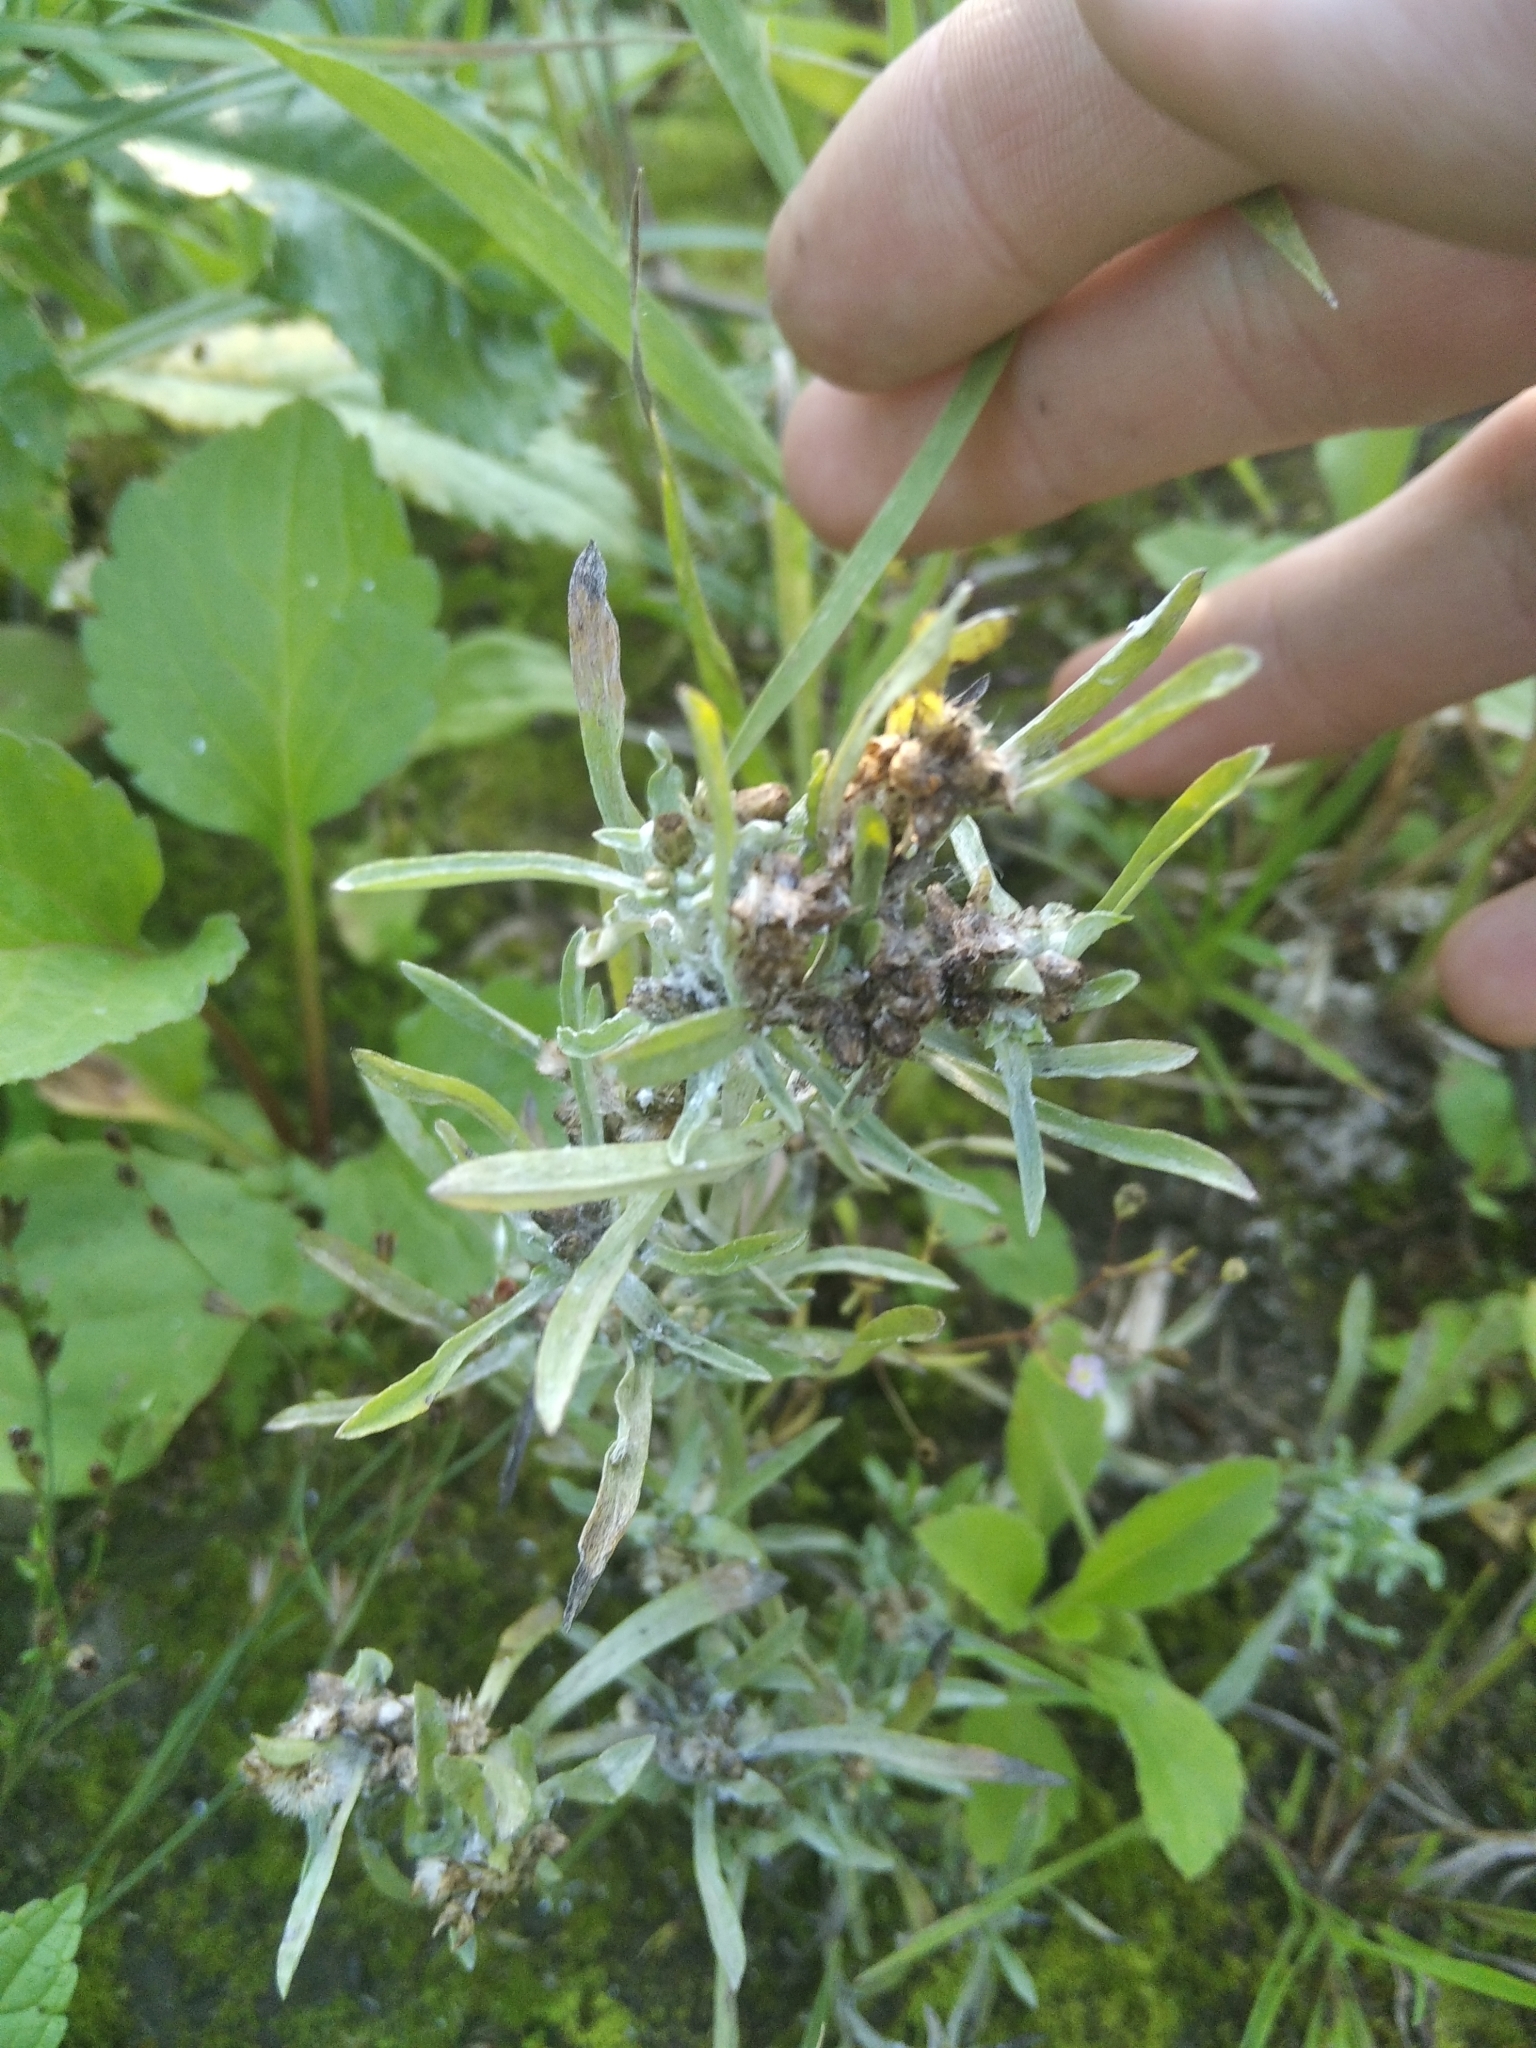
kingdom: Plantae
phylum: Tracheophyta
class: Magnoliopsida
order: Asterales
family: Asteraceae
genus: Gnaphalium
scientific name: Gnaphalium uliginosum
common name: Marsh cudweed
